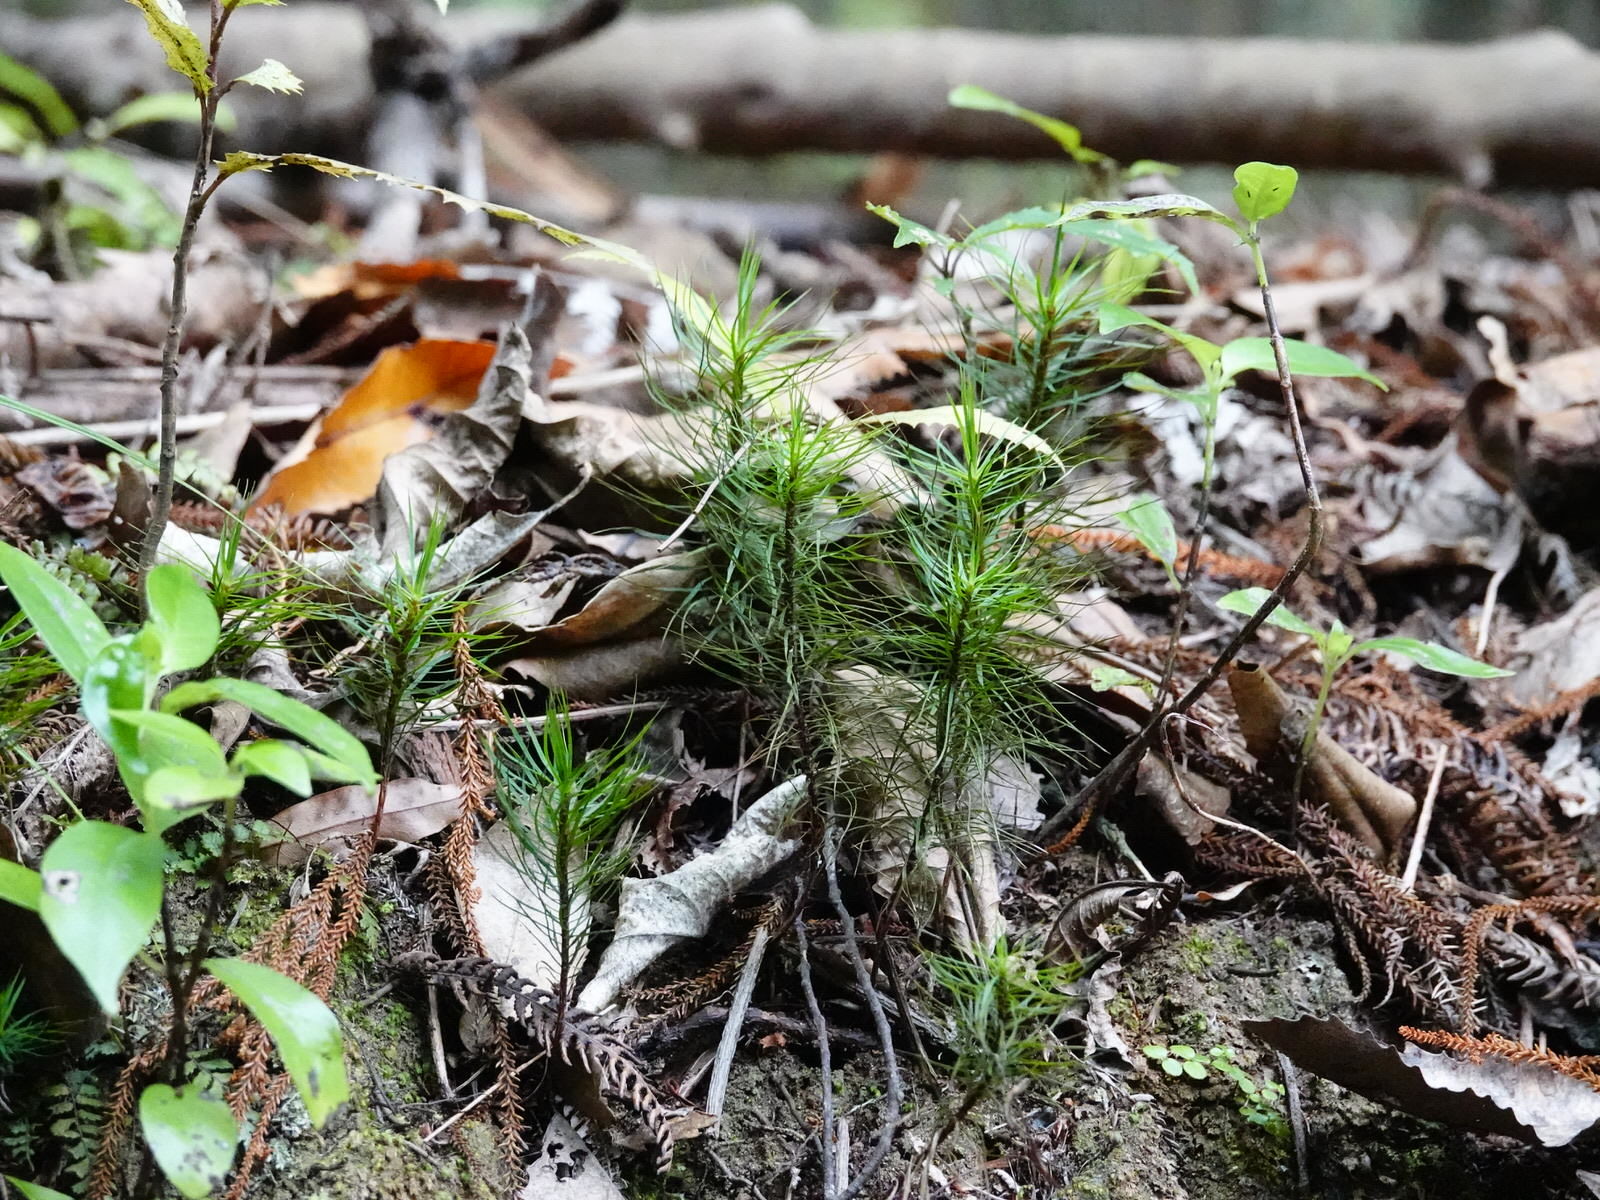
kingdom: Plantae
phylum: Bryophyta
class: Polytrichopsida
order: Polytrichales
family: Polytrichaceae
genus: Dawsonia
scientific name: Dawsonia superba
